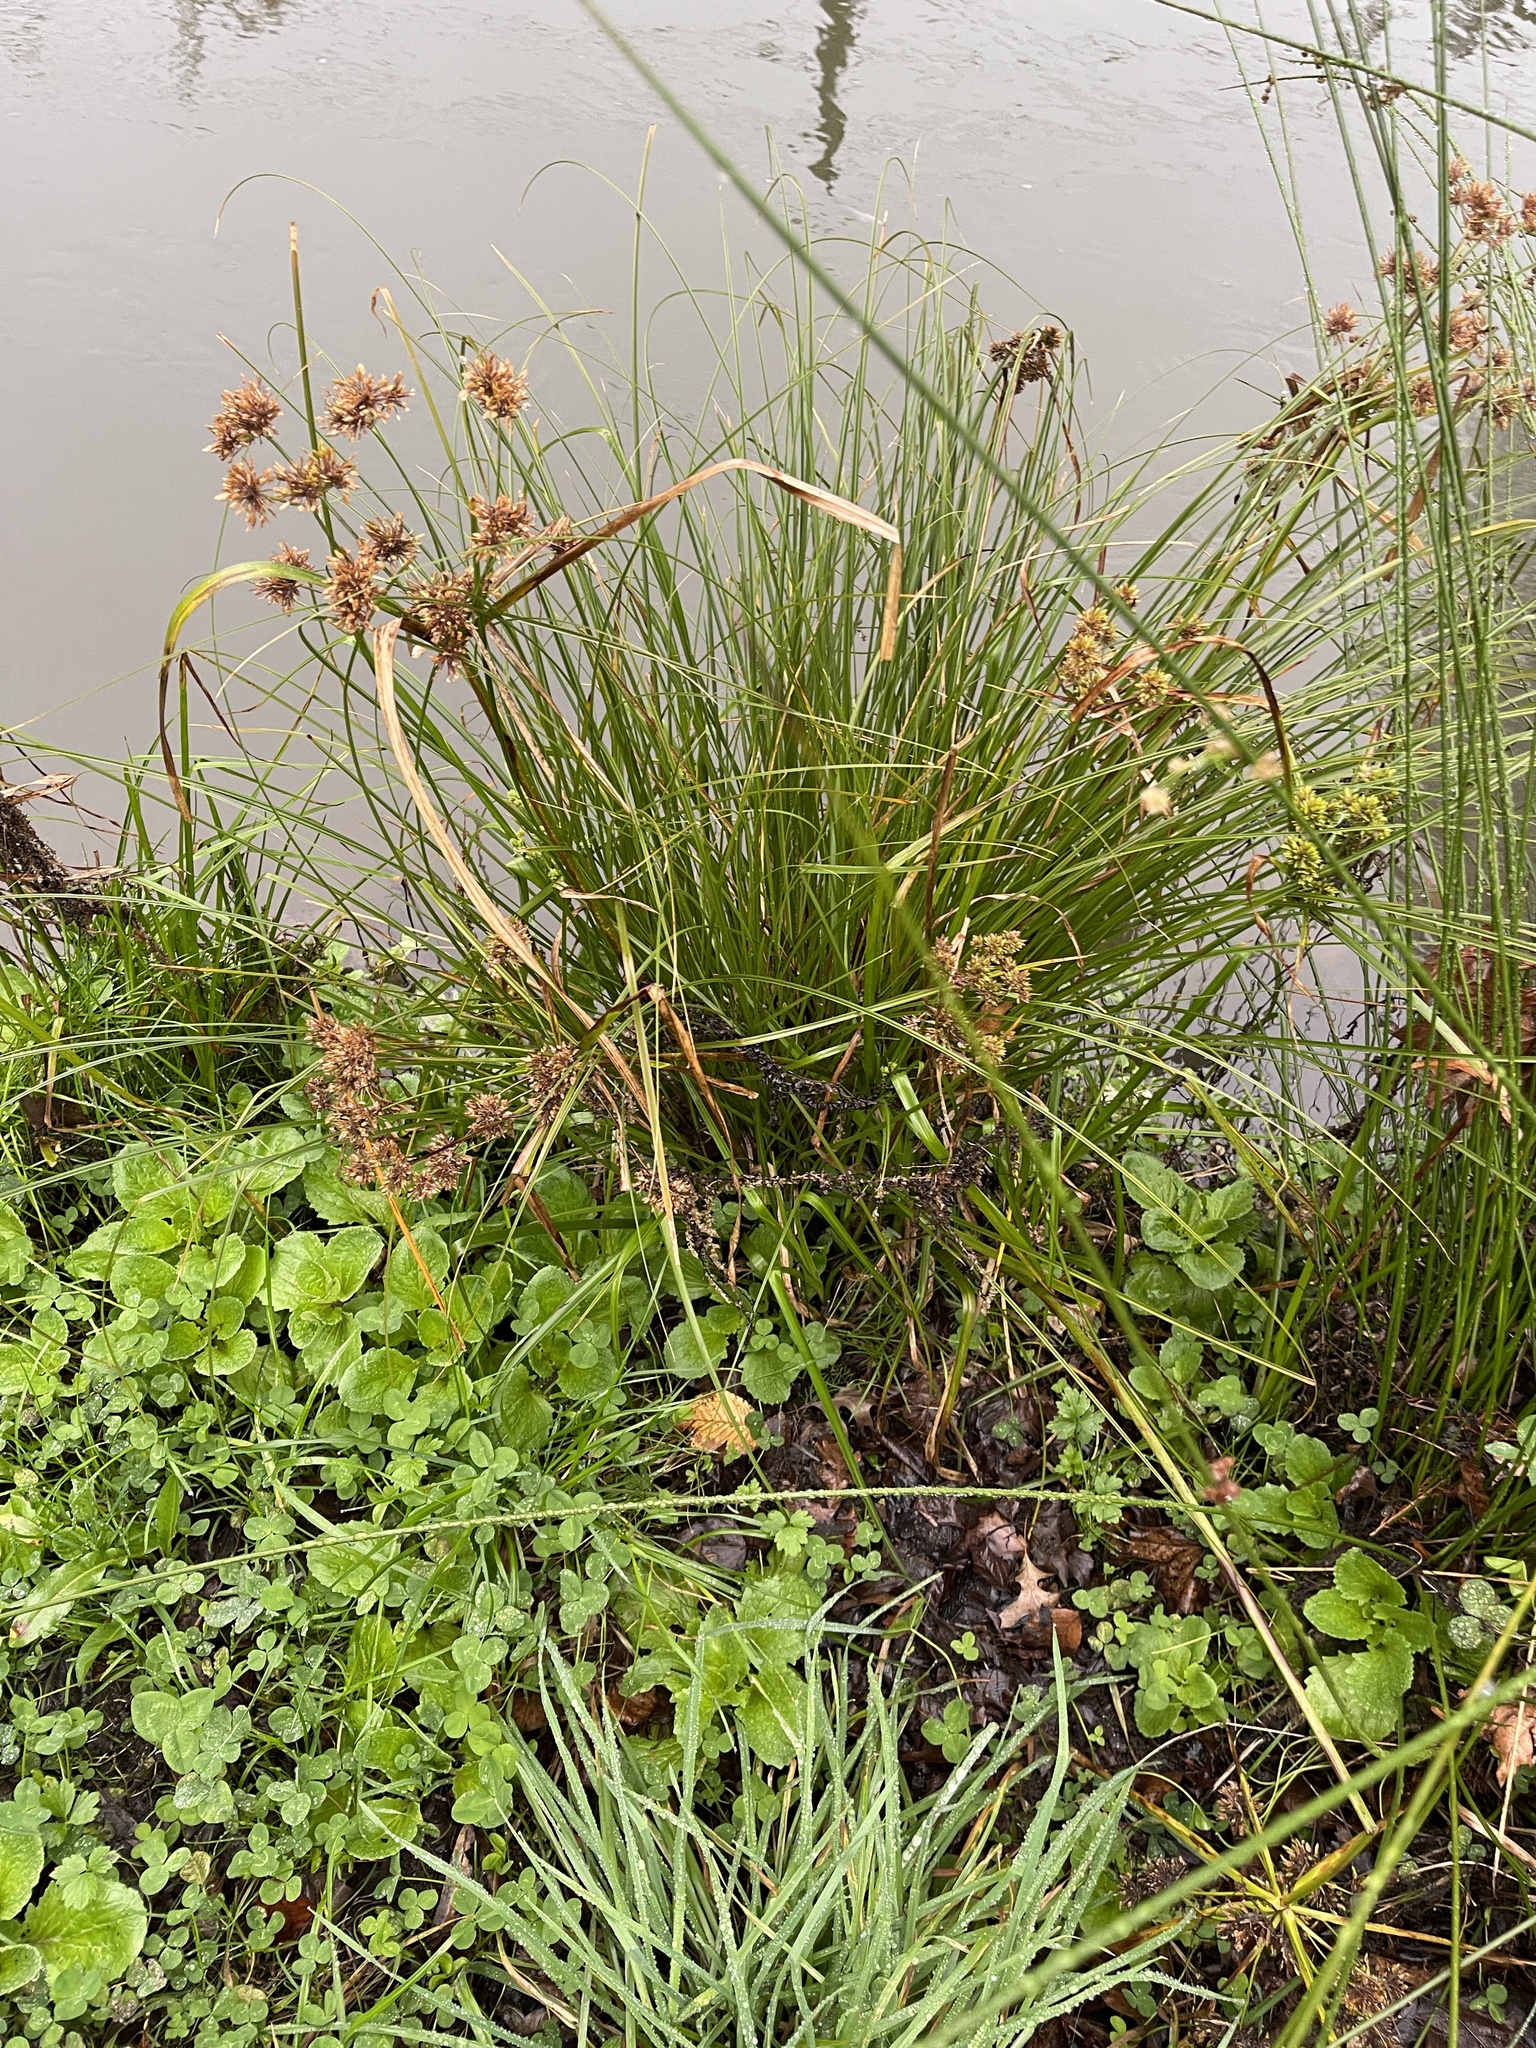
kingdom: Plantae
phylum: Tracheophyta
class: Liliopsida
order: Poales
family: Cyperaceae
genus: Cyperus
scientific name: Cyperus congestus
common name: Dense flat sedge
